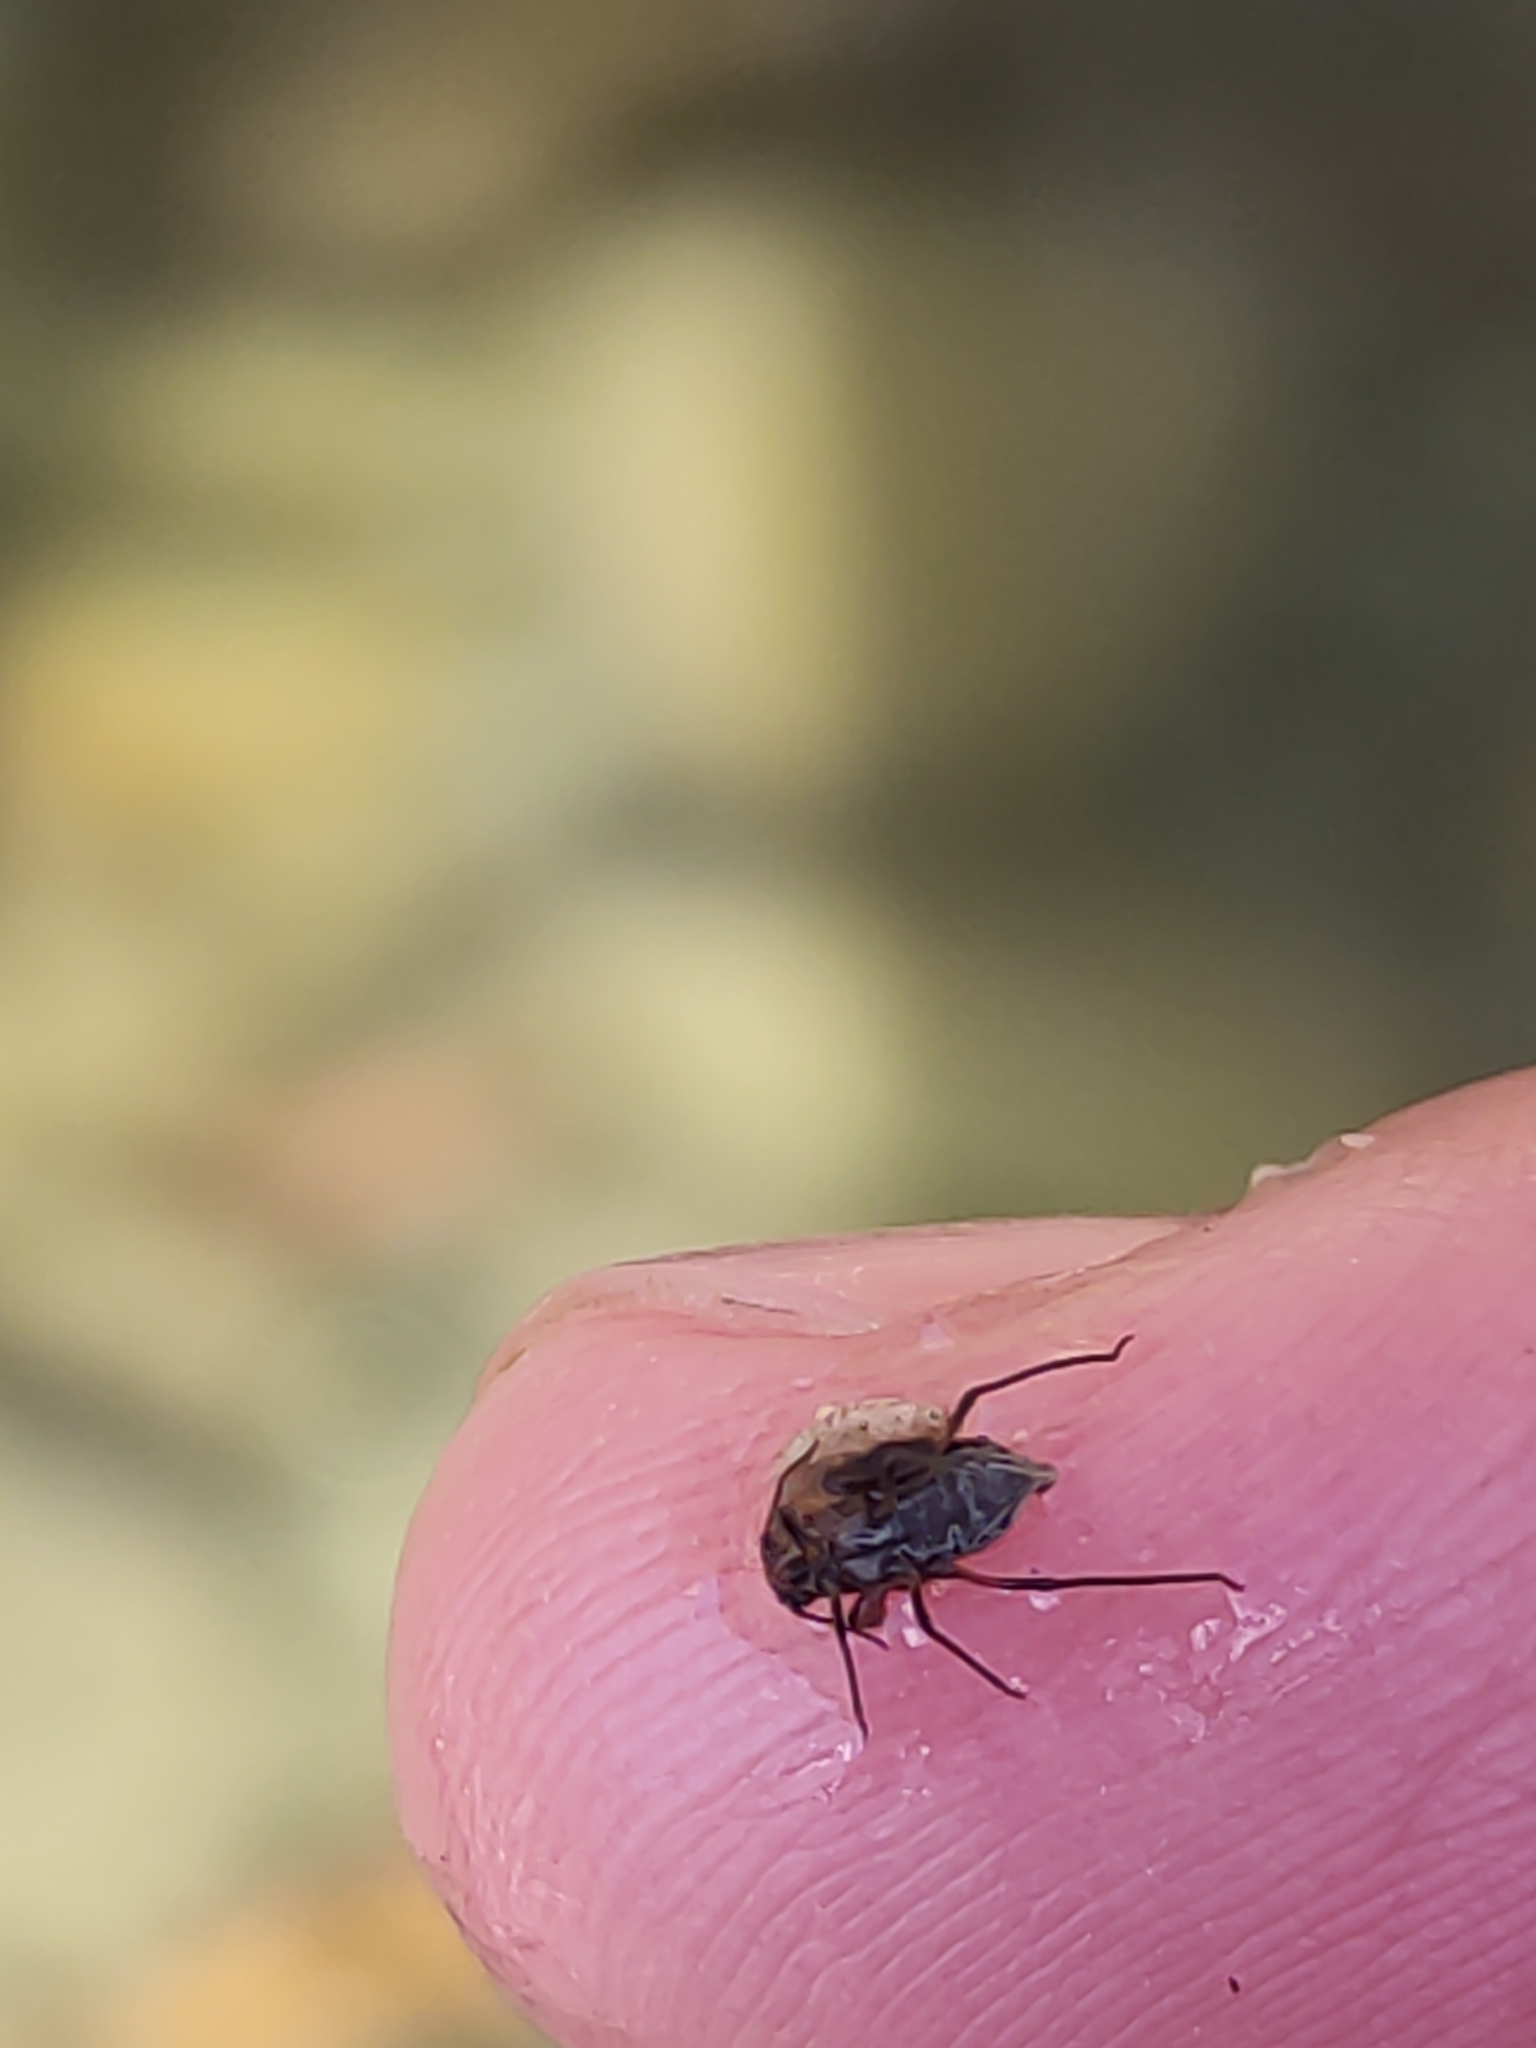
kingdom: Animalia
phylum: Arthropoda
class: Insecta
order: Hemiptera
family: Aphididae
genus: Tuberolachnus
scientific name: Tuberolachnus salignus
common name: Giant willow aphid
